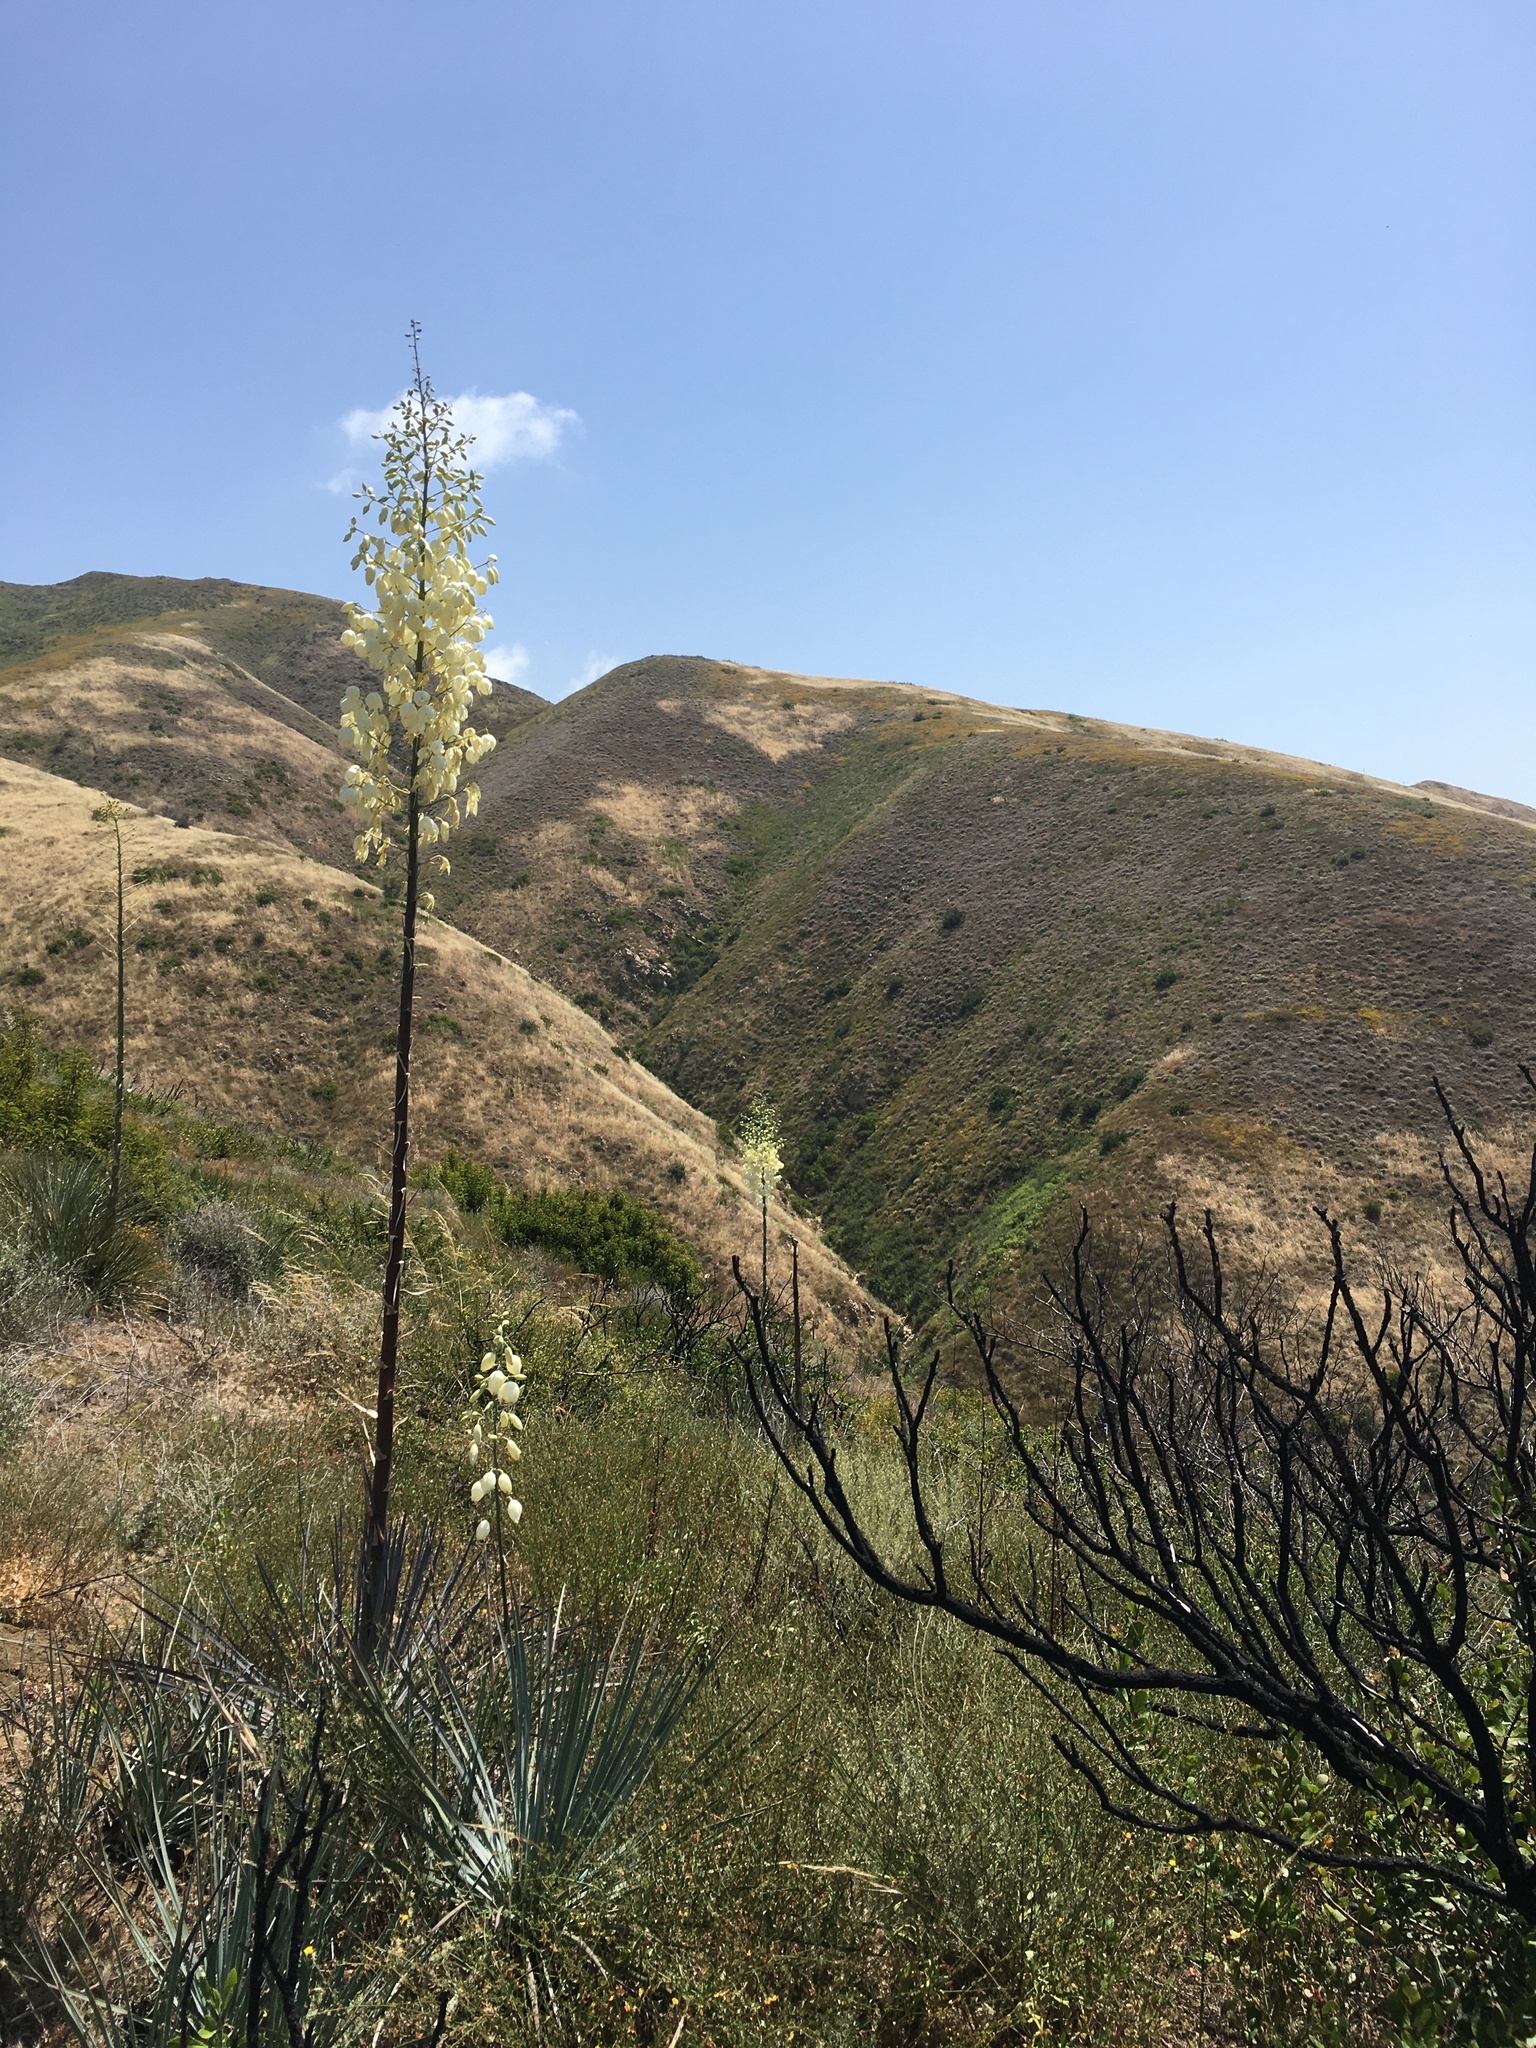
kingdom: Plantae
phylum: Tracheophyta
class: Liliopsida
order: Asparagales
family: Asparagaceae
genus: Hesperoyucca
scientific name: Hesperoyucca whipplei
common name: Our lord's-candle
